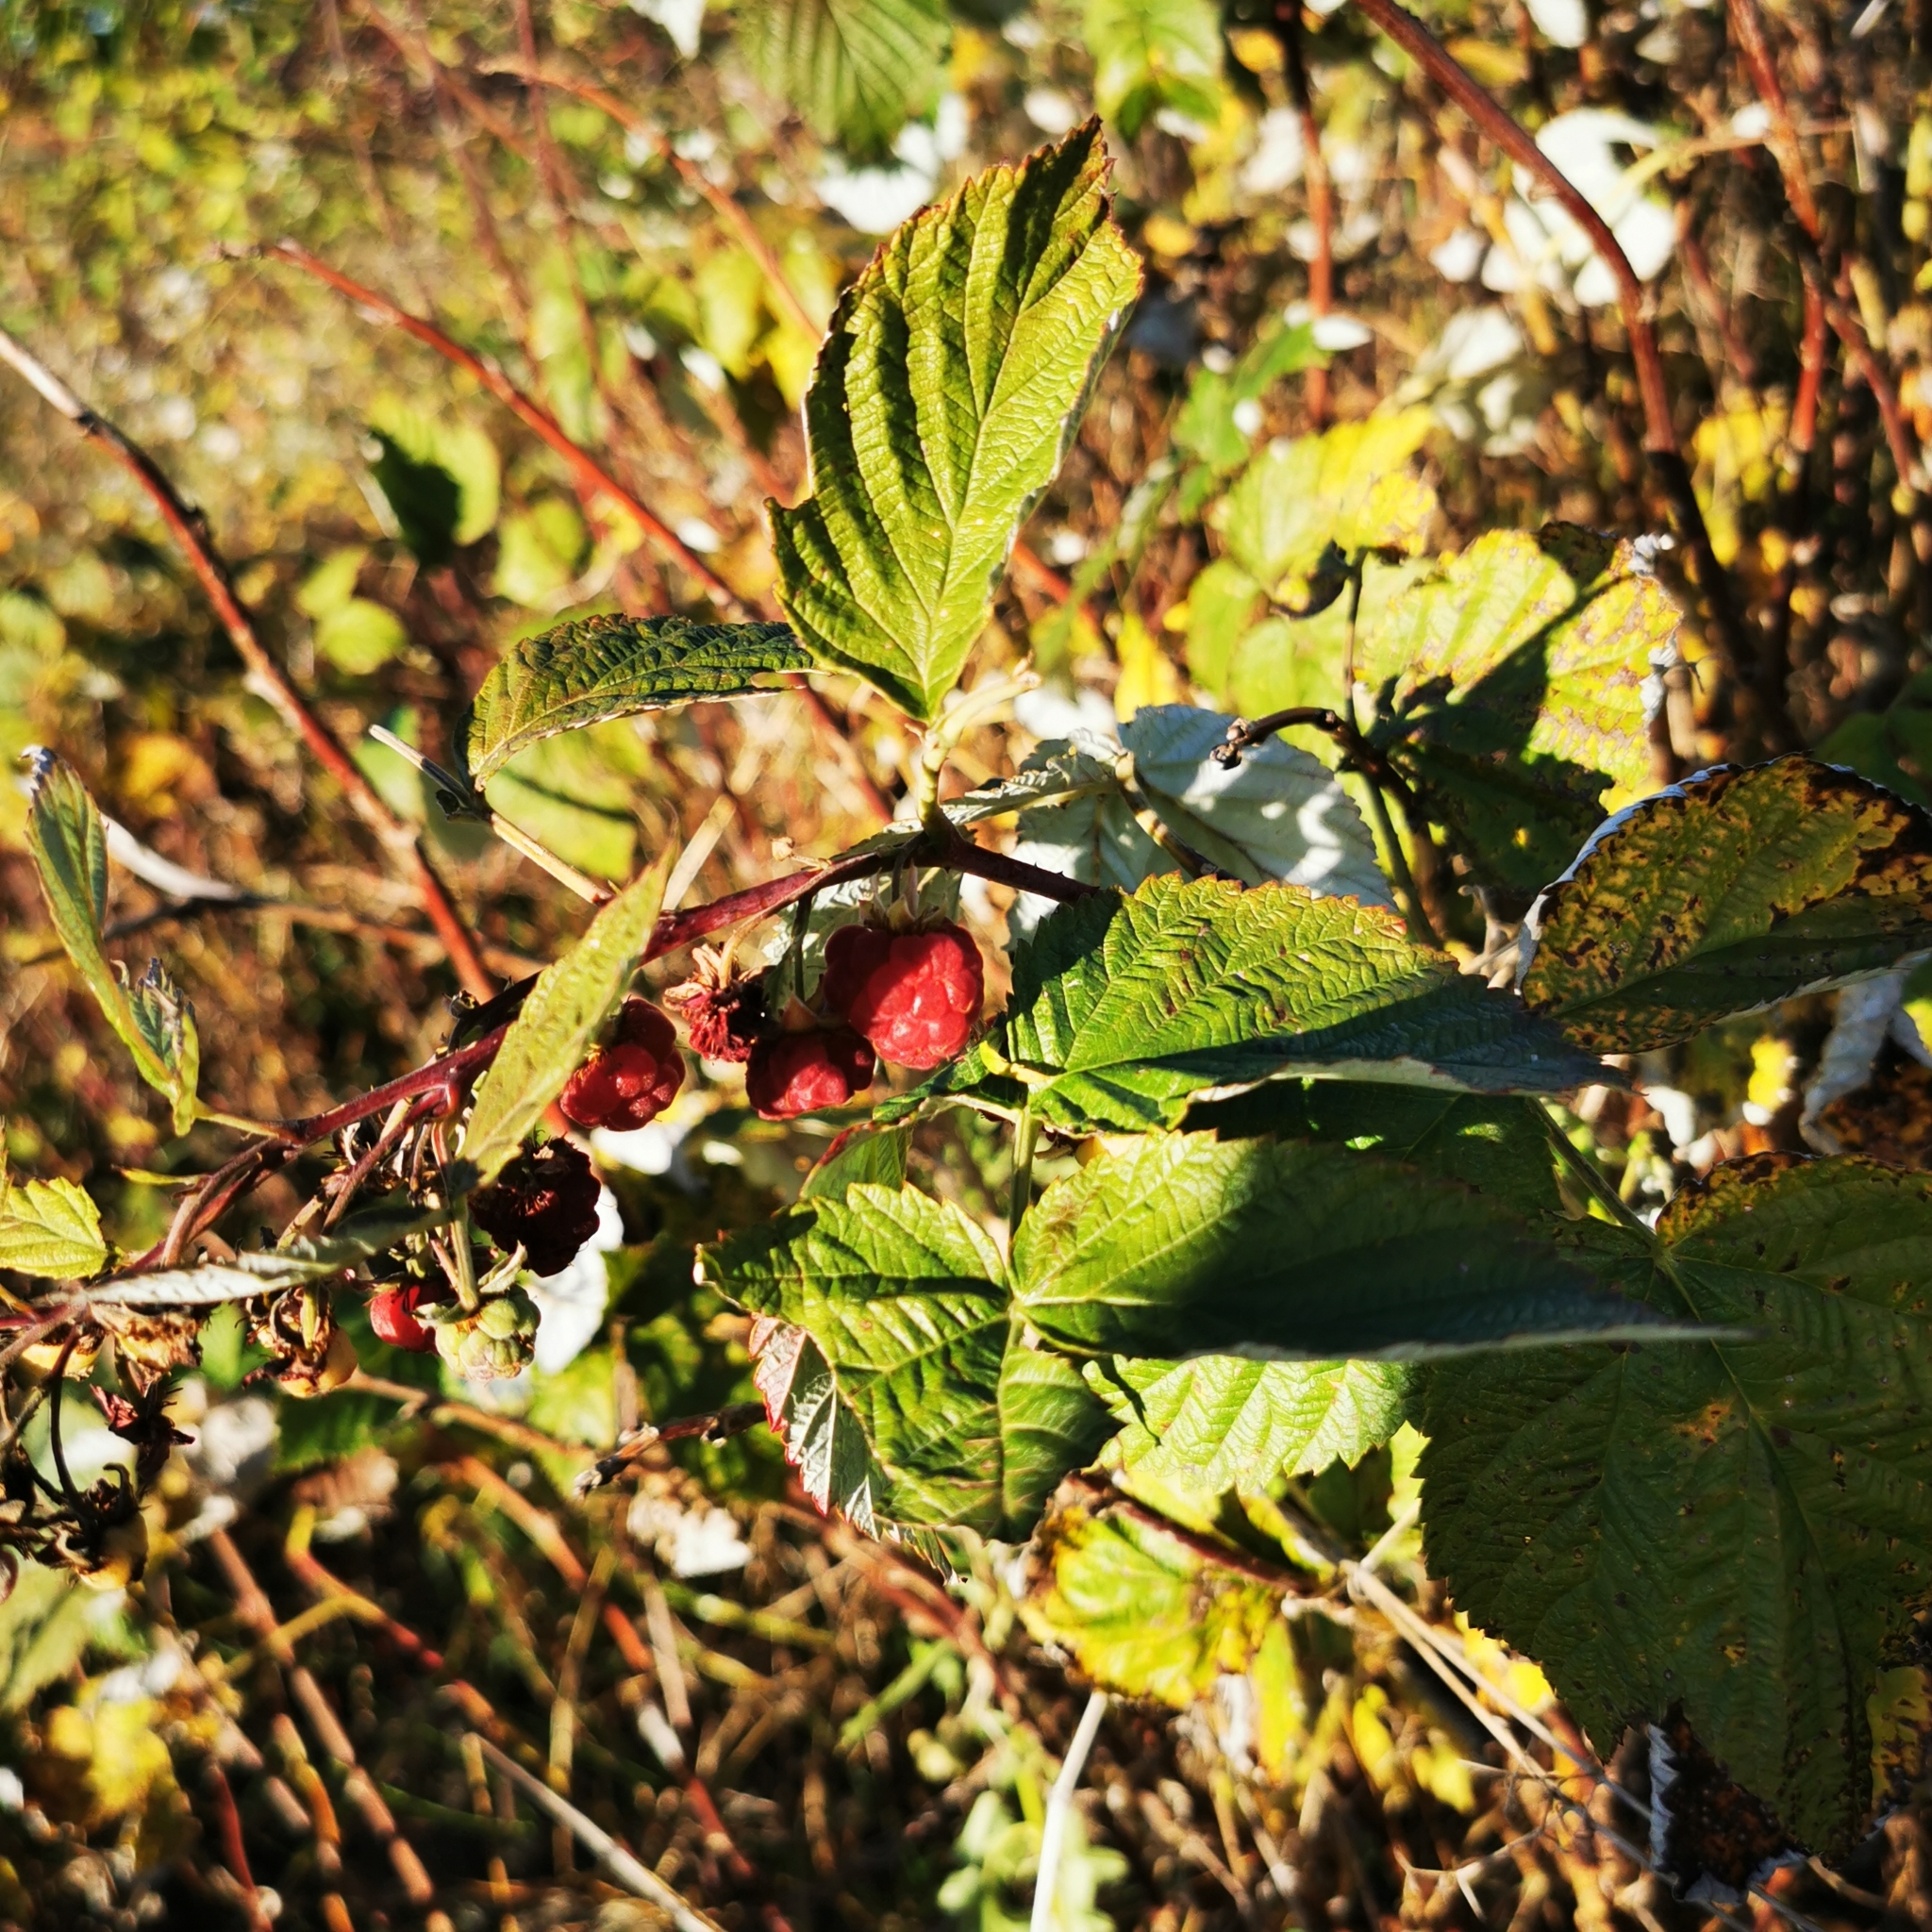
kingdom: Plantae
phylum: Tracheophyta
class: Magnoliopsida
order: Rosales
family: Rosaceae
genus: Rubus
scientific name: Rubus idaeus
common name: Raspberry
